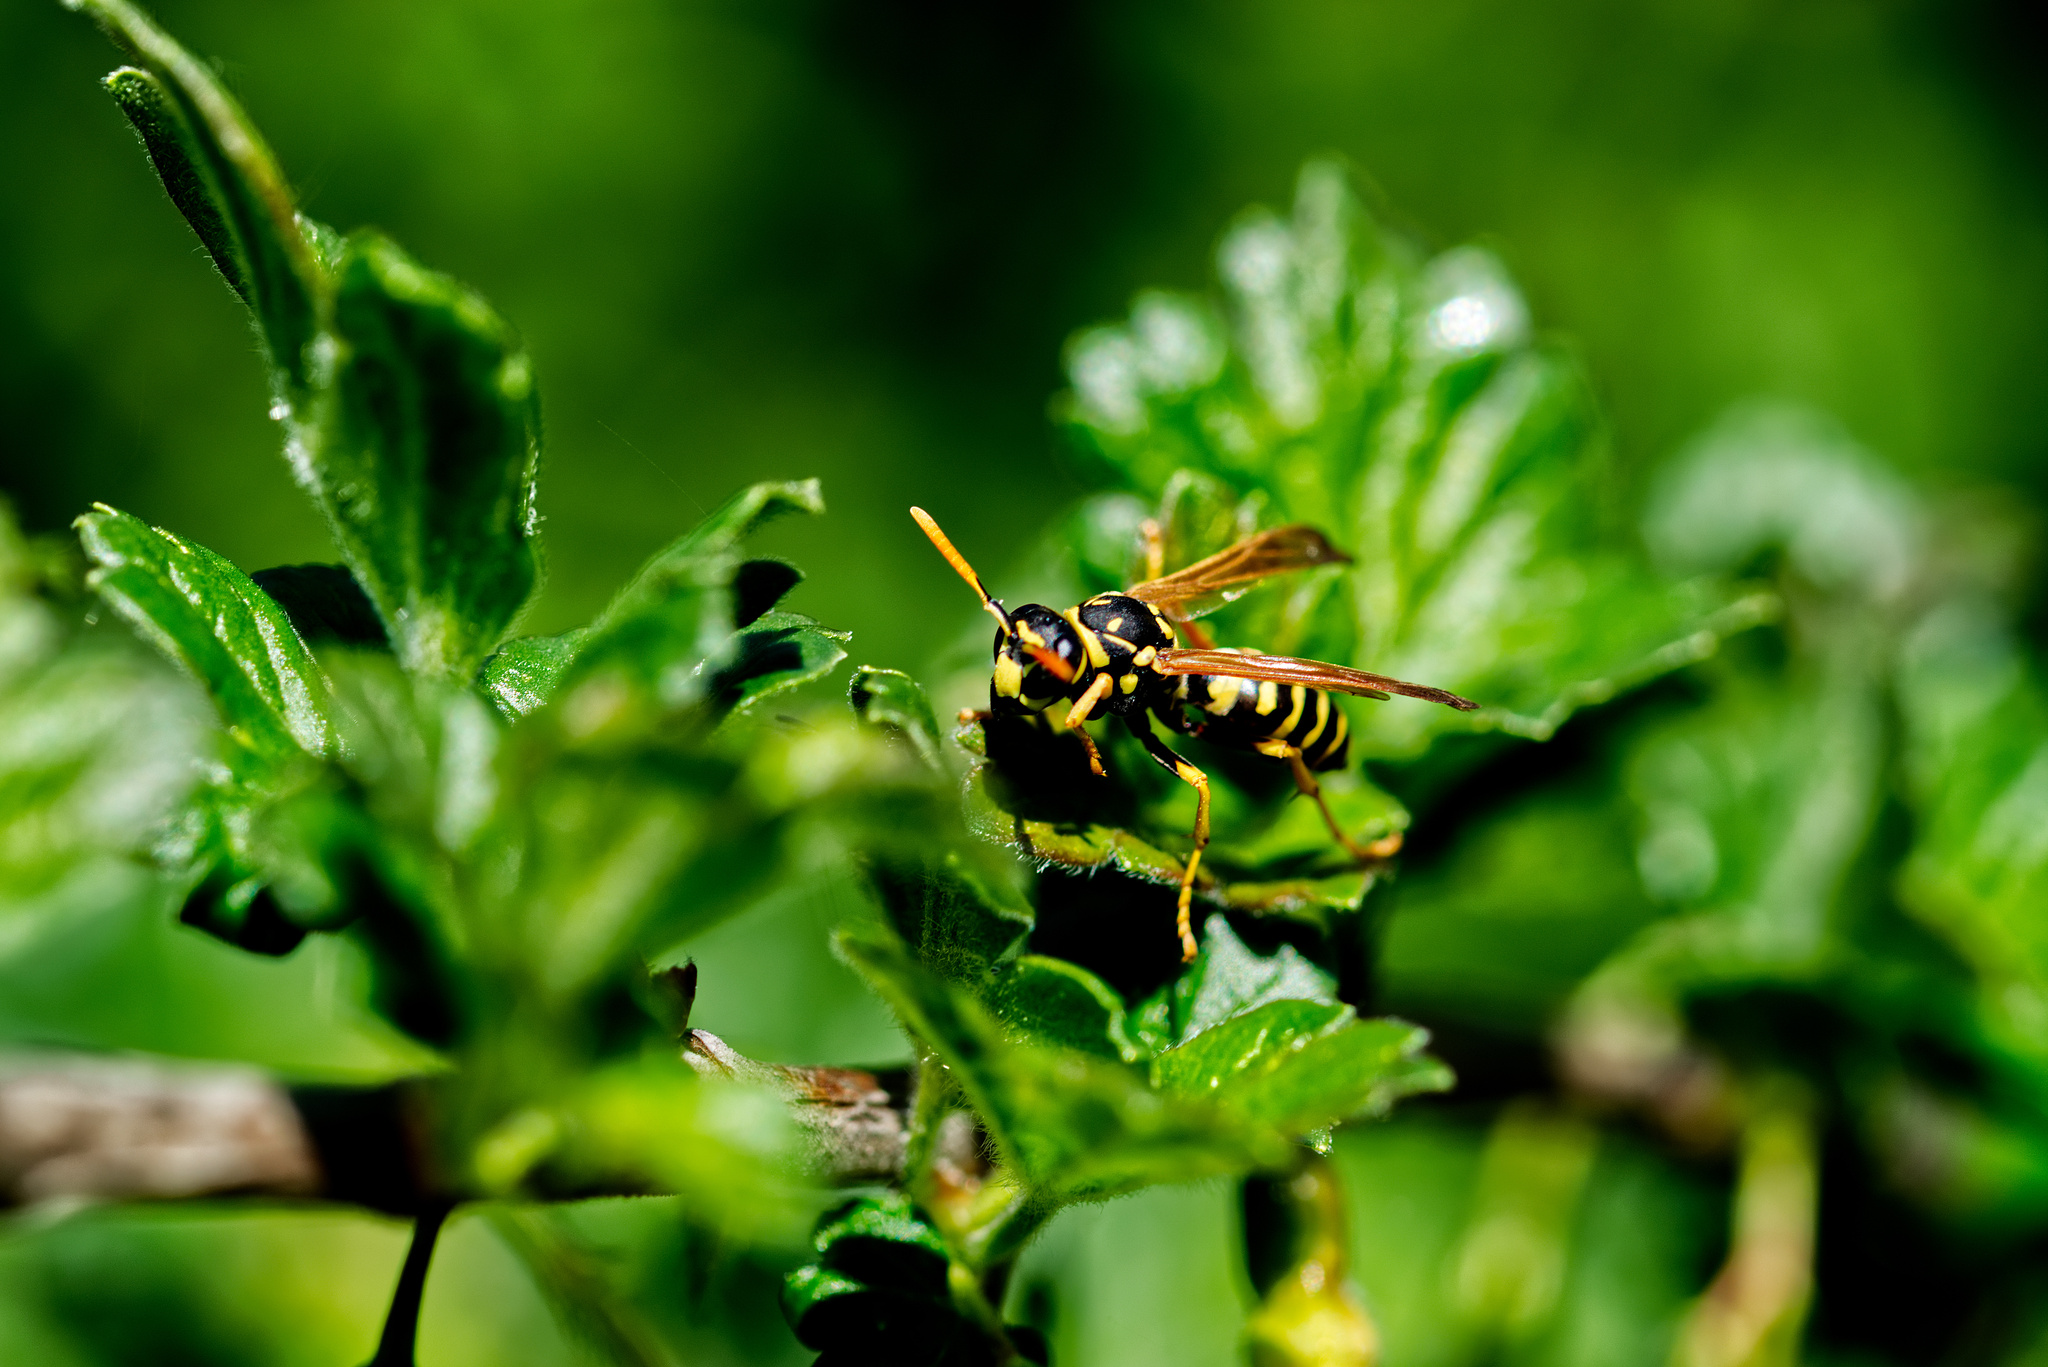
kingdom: Animalia
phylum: Arthropoda
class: Insecta
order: Hymenoptera
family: Eumenidae
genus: Polistes
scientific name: Polistes dominula
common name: Paper wasp
